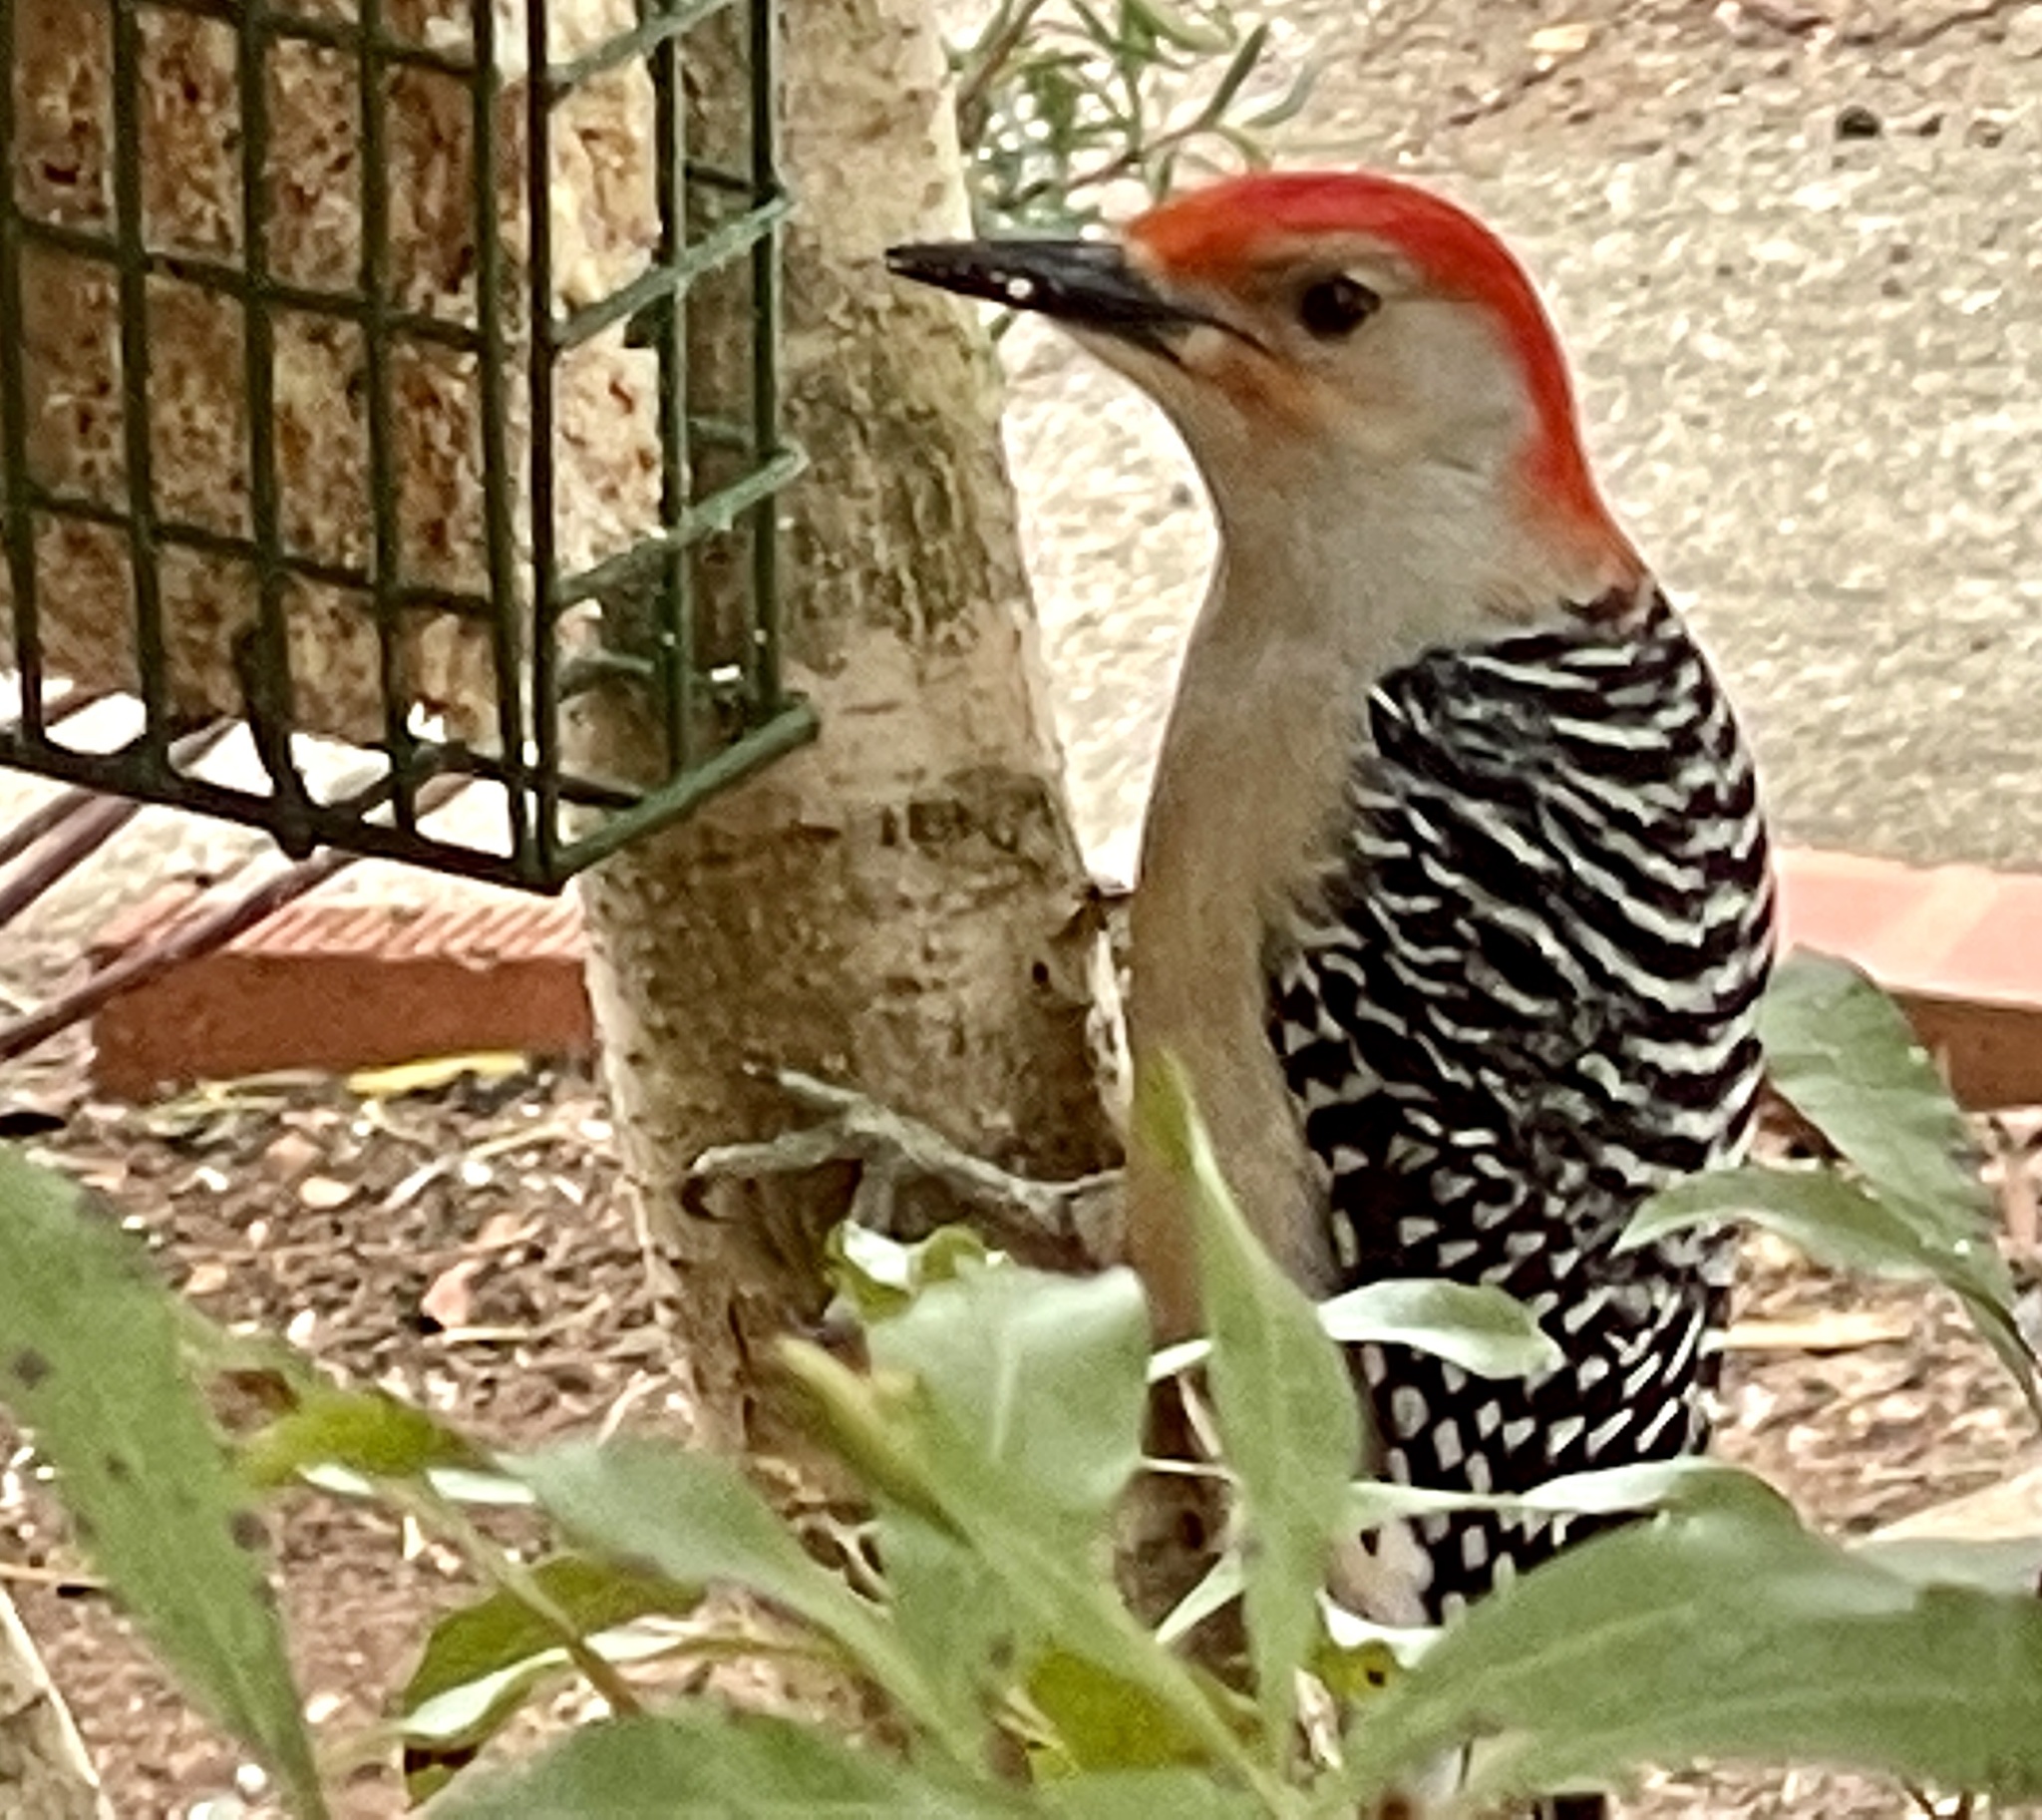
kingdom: Animalia
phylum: Chordata
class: Aves
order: Piciformes
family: Picidae
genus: Melanerpes
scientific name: Melanerpes carolinus
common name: Red-bellied woodpecker
